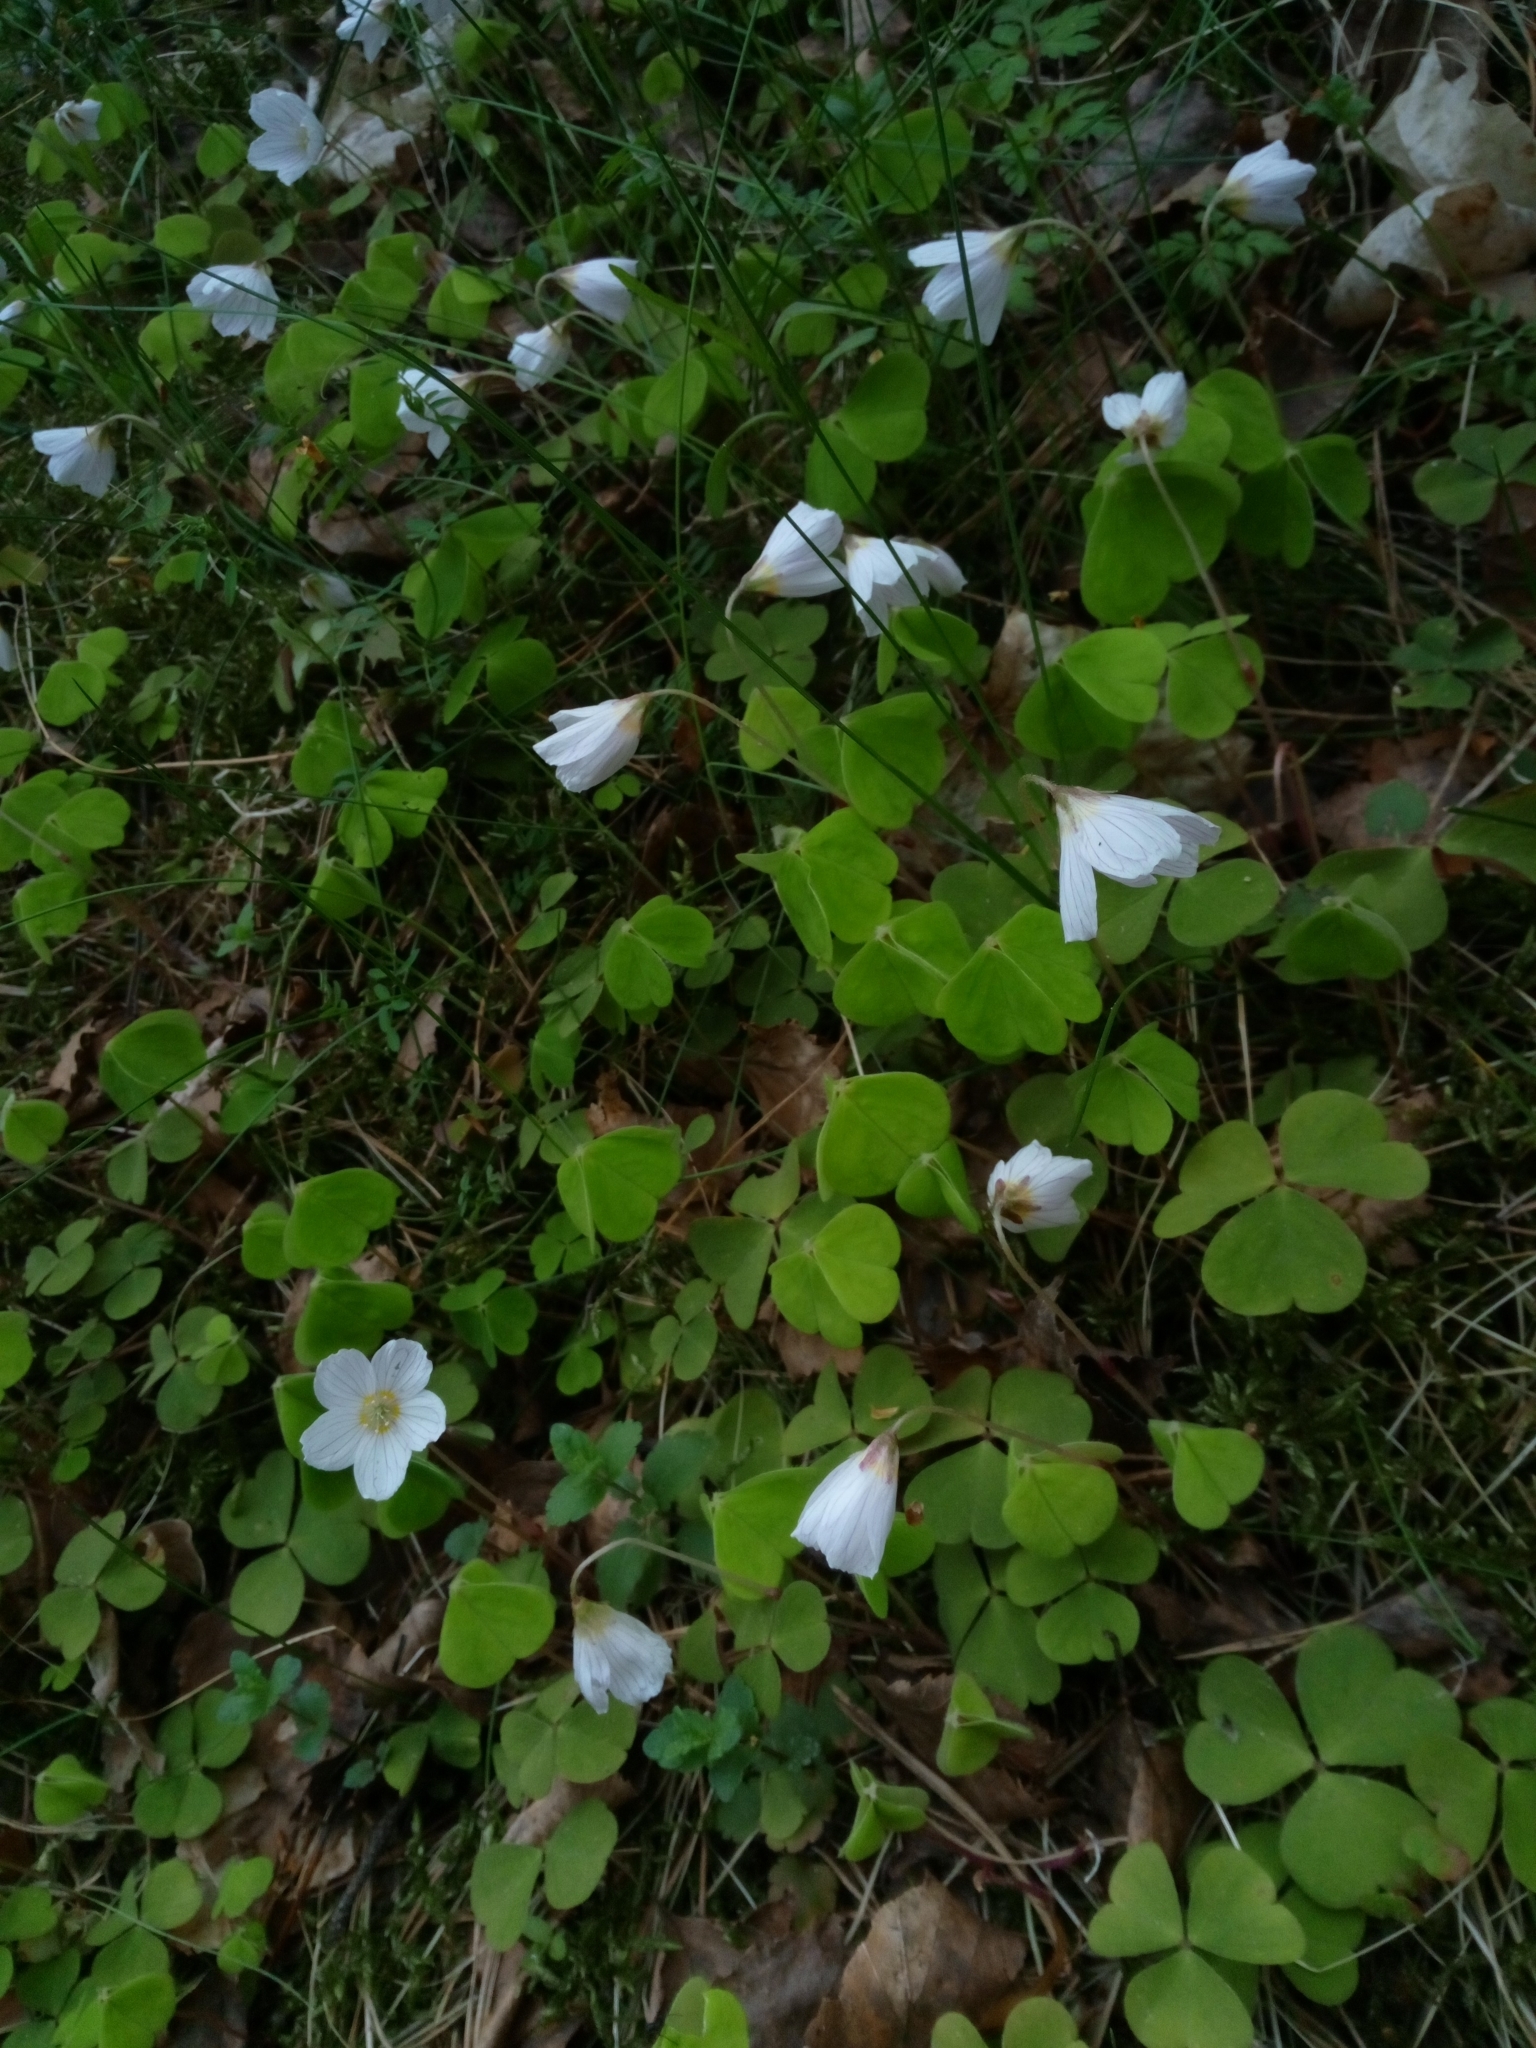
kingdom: Plantae
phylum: Tracheophyta
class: Magnoliopsida
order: Oxalidales
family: Oxalidaceae
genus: Oxalis
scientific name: Oxalis acetosella
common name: Wood-sorrel
